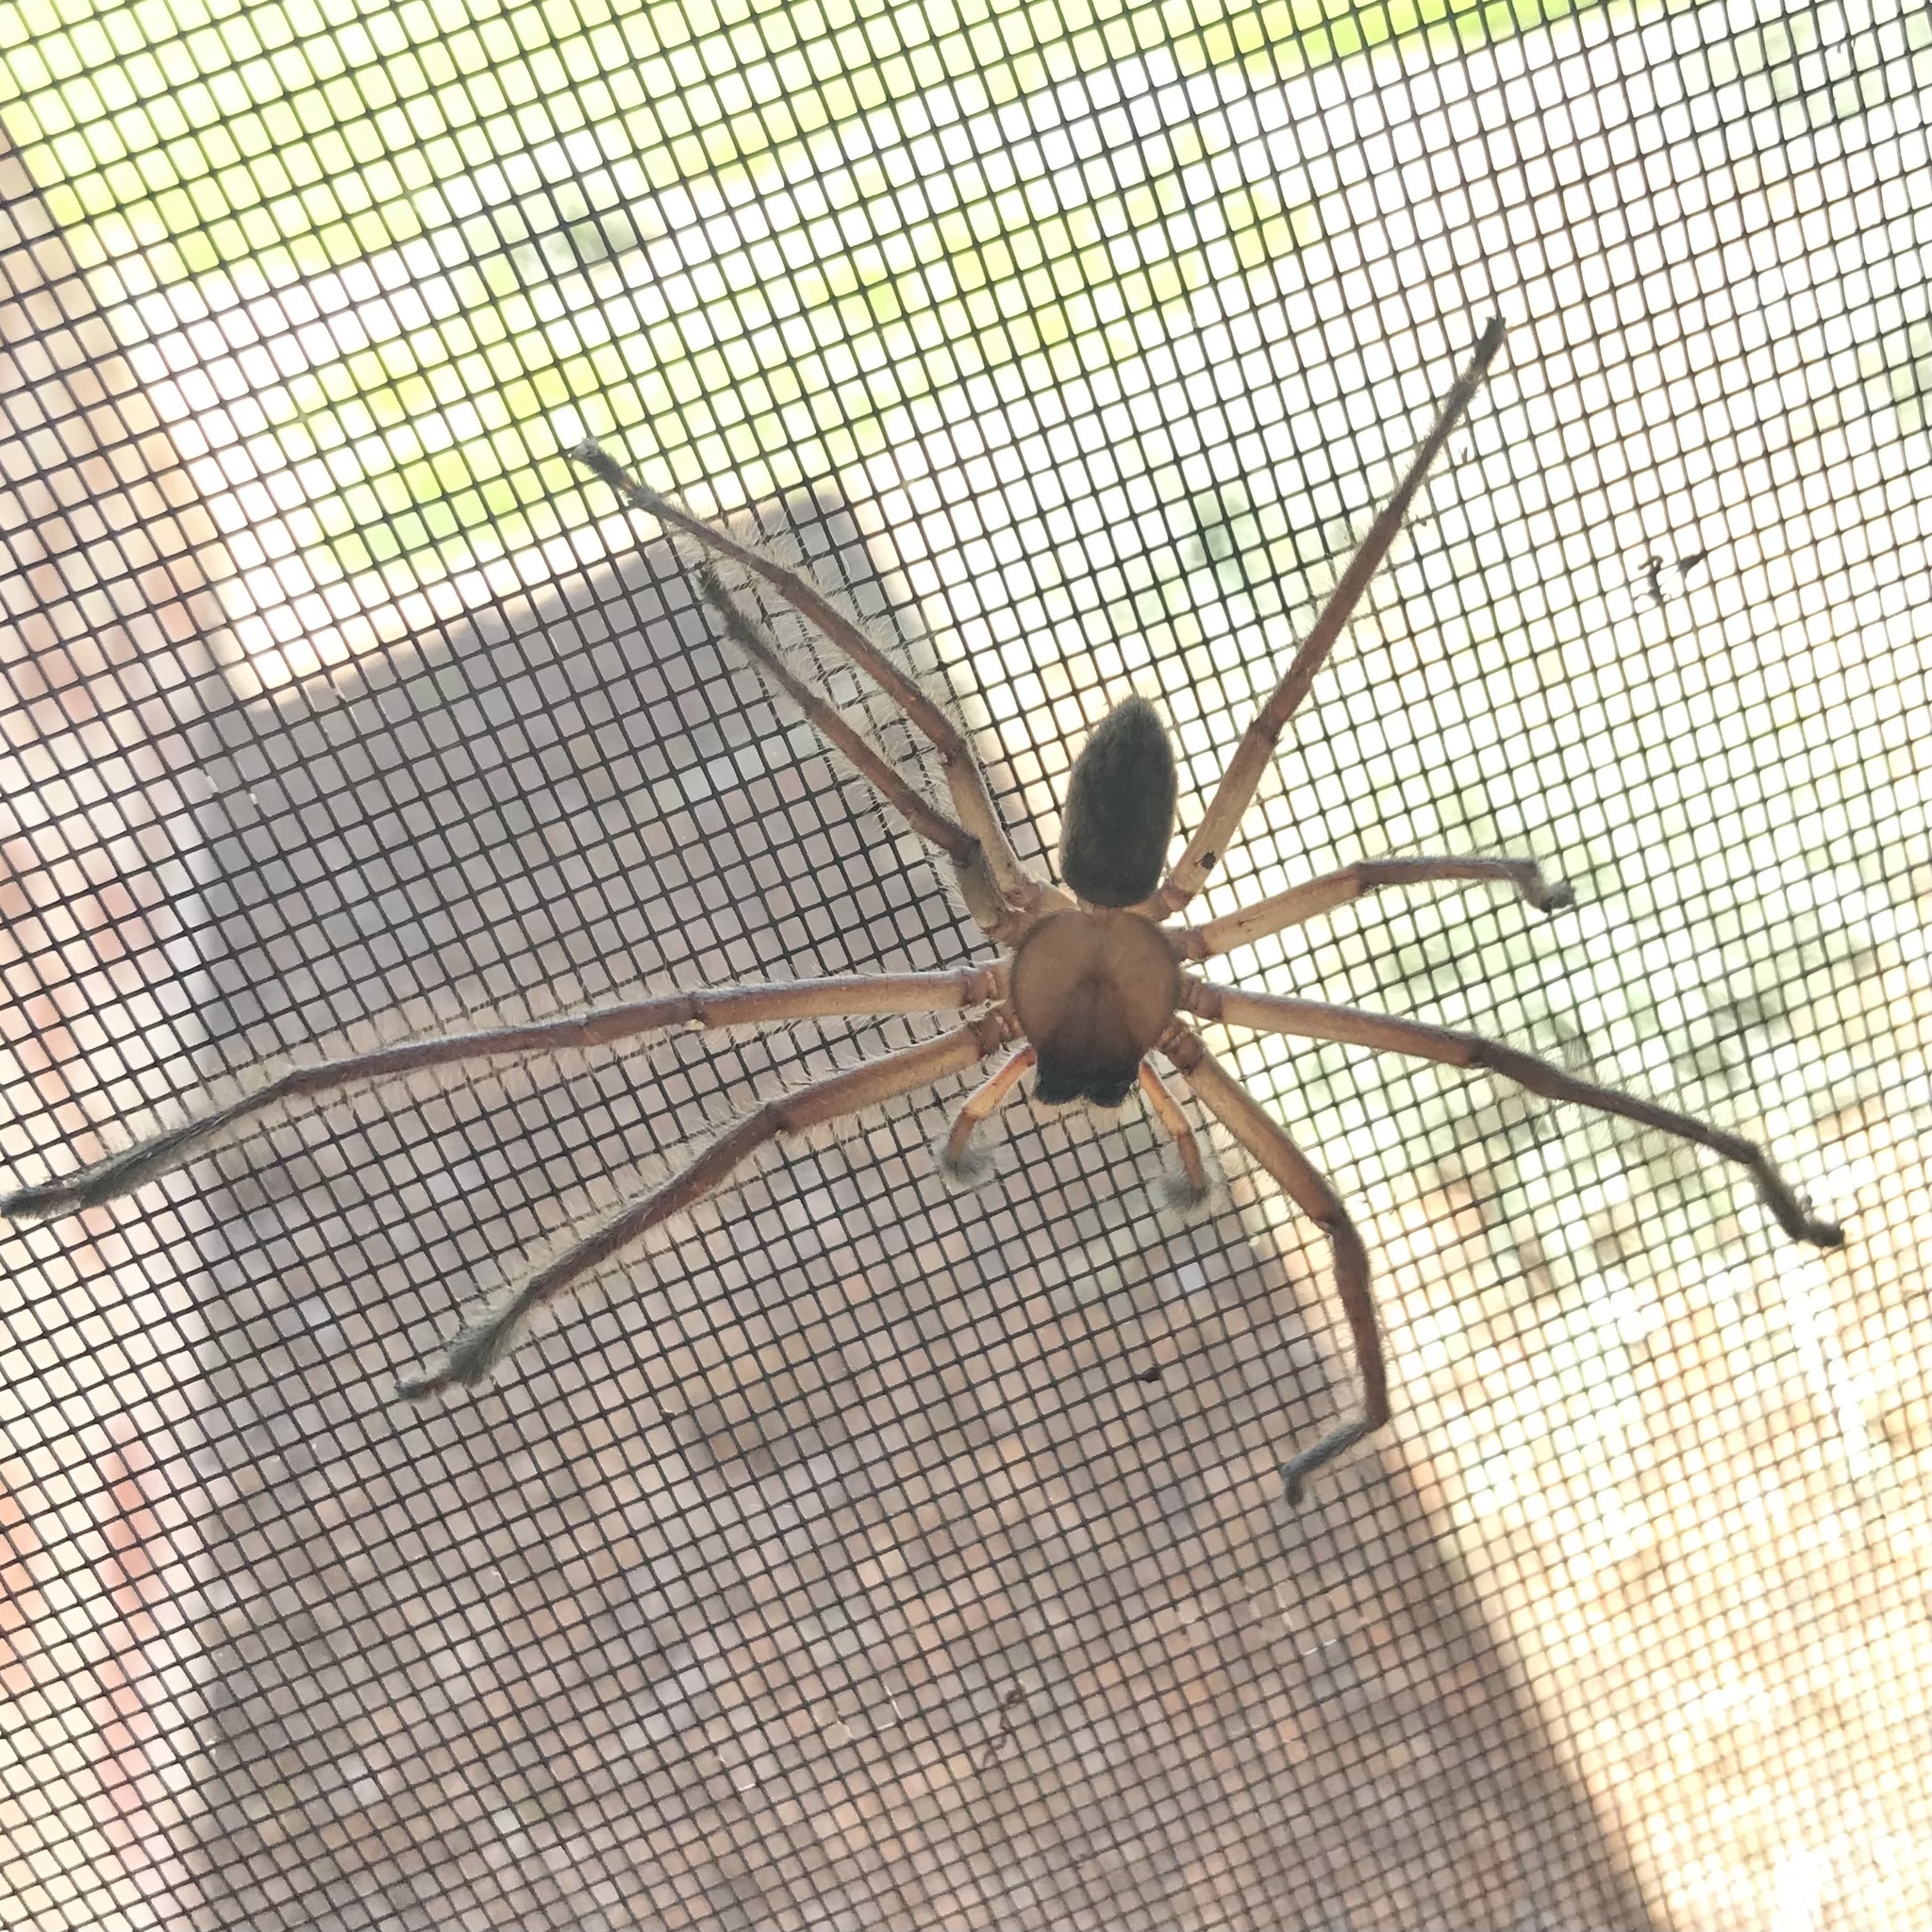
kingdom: Animalia
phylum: Arthropoda
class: Arachnida
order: Araneae
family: Sparassidae
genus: Delena
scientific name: Delena cancerides
